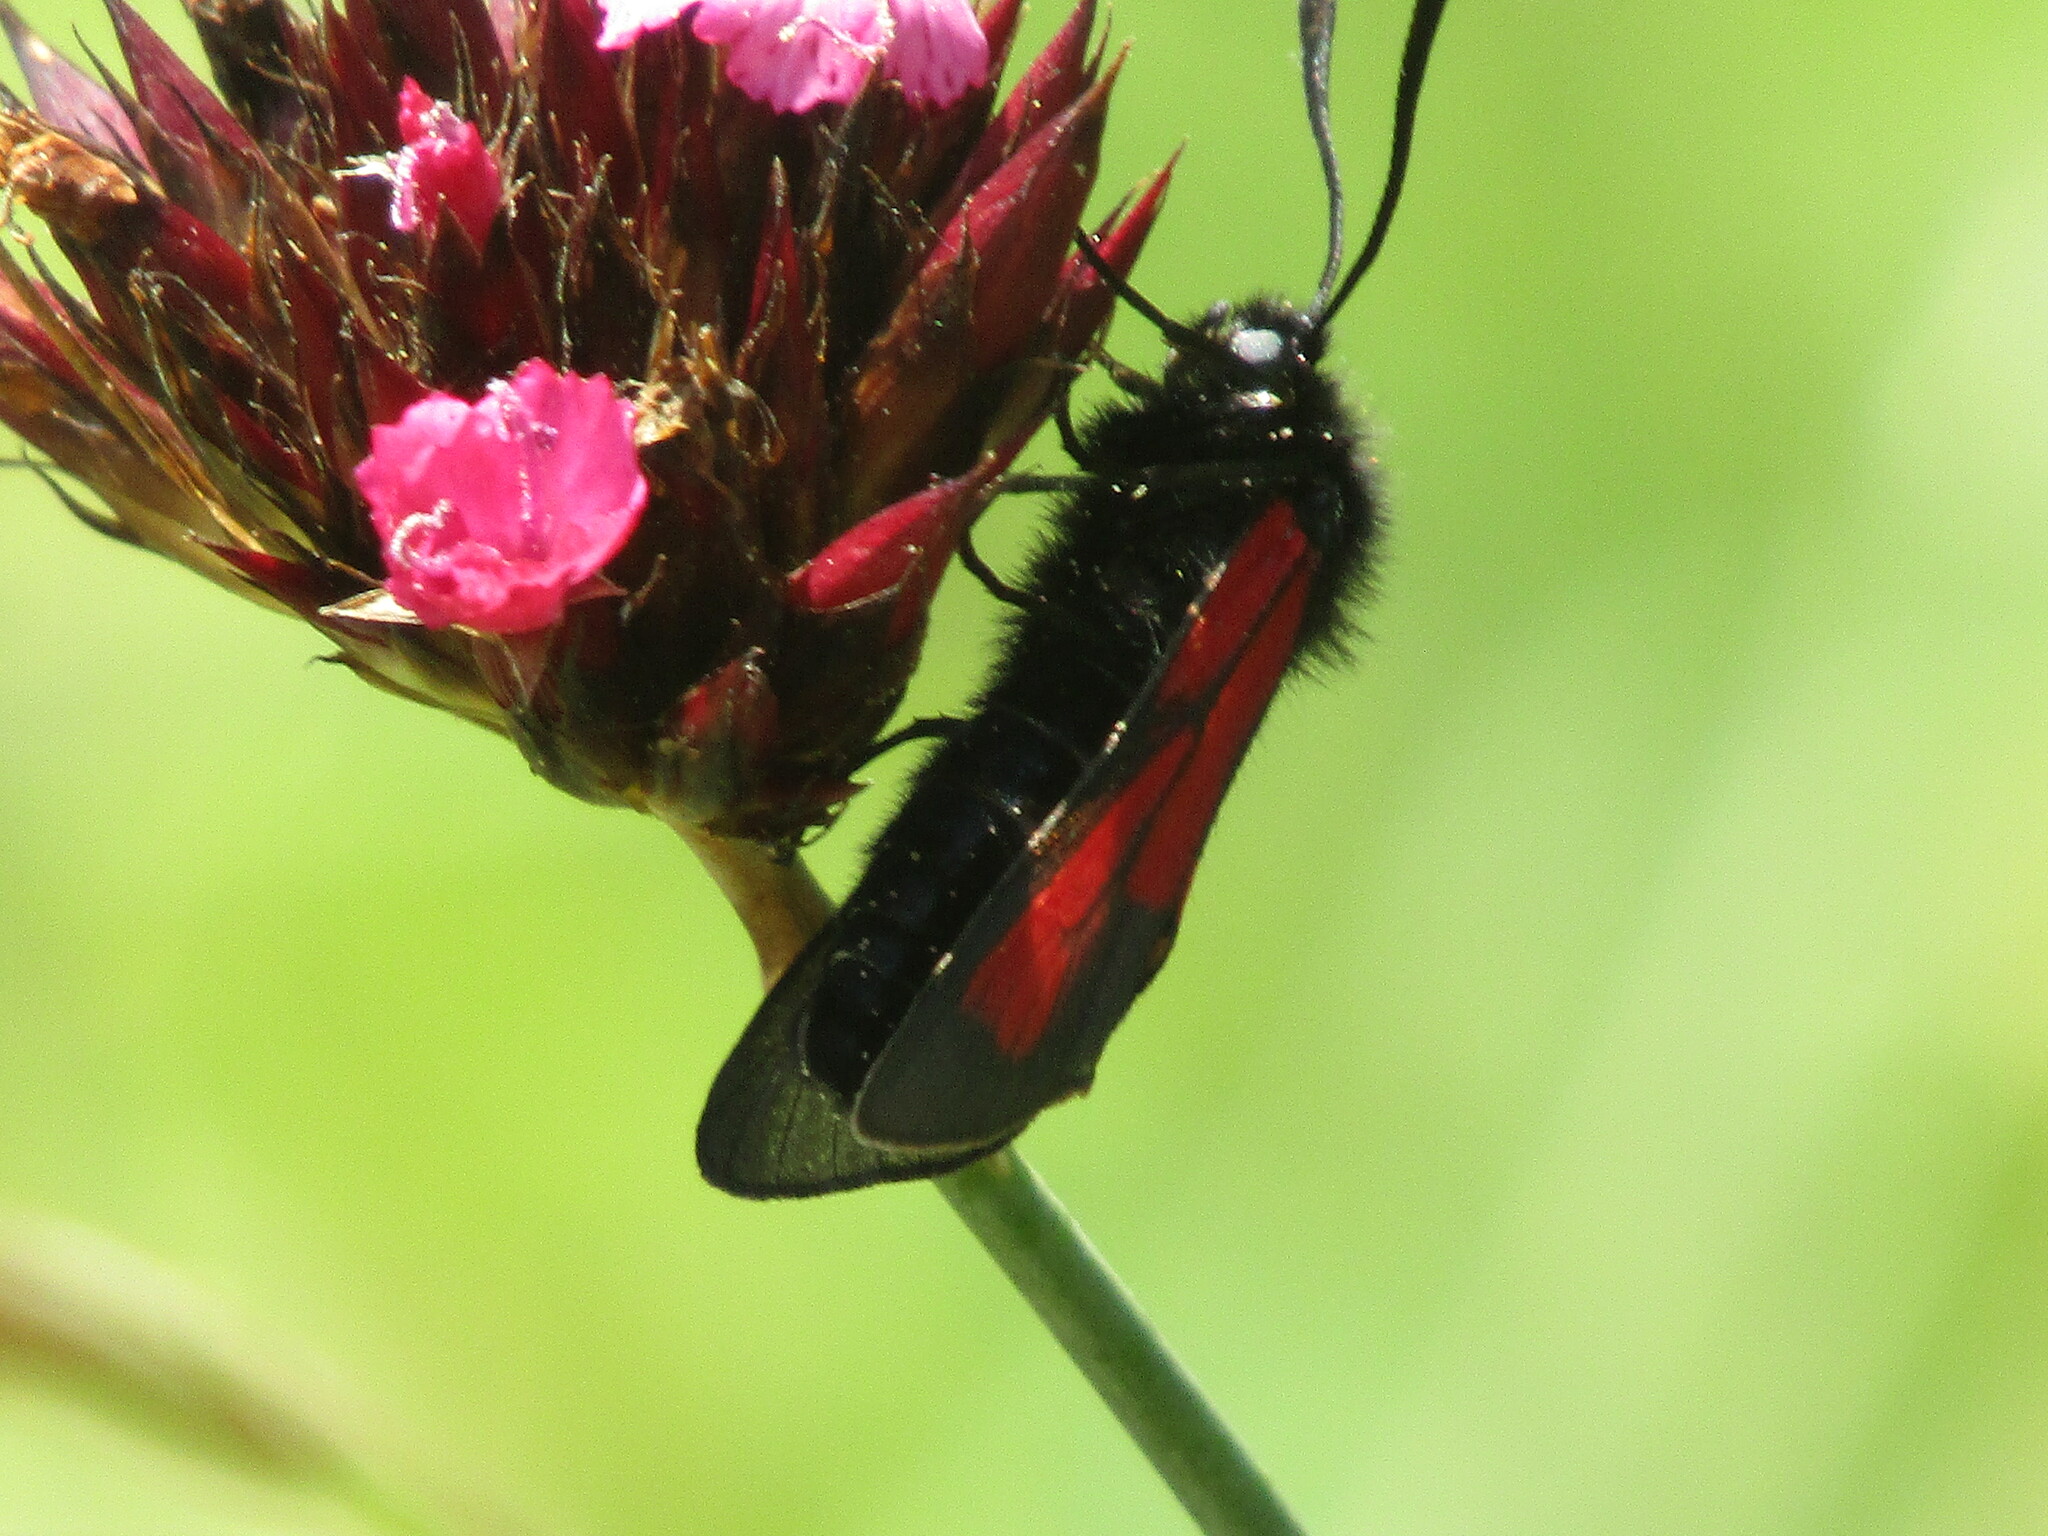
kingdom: Animalia
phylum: Arthropoda
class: Insecta
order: Lepidoptera
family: Zygaenidae
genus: Zygaena
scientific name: Zygaena
